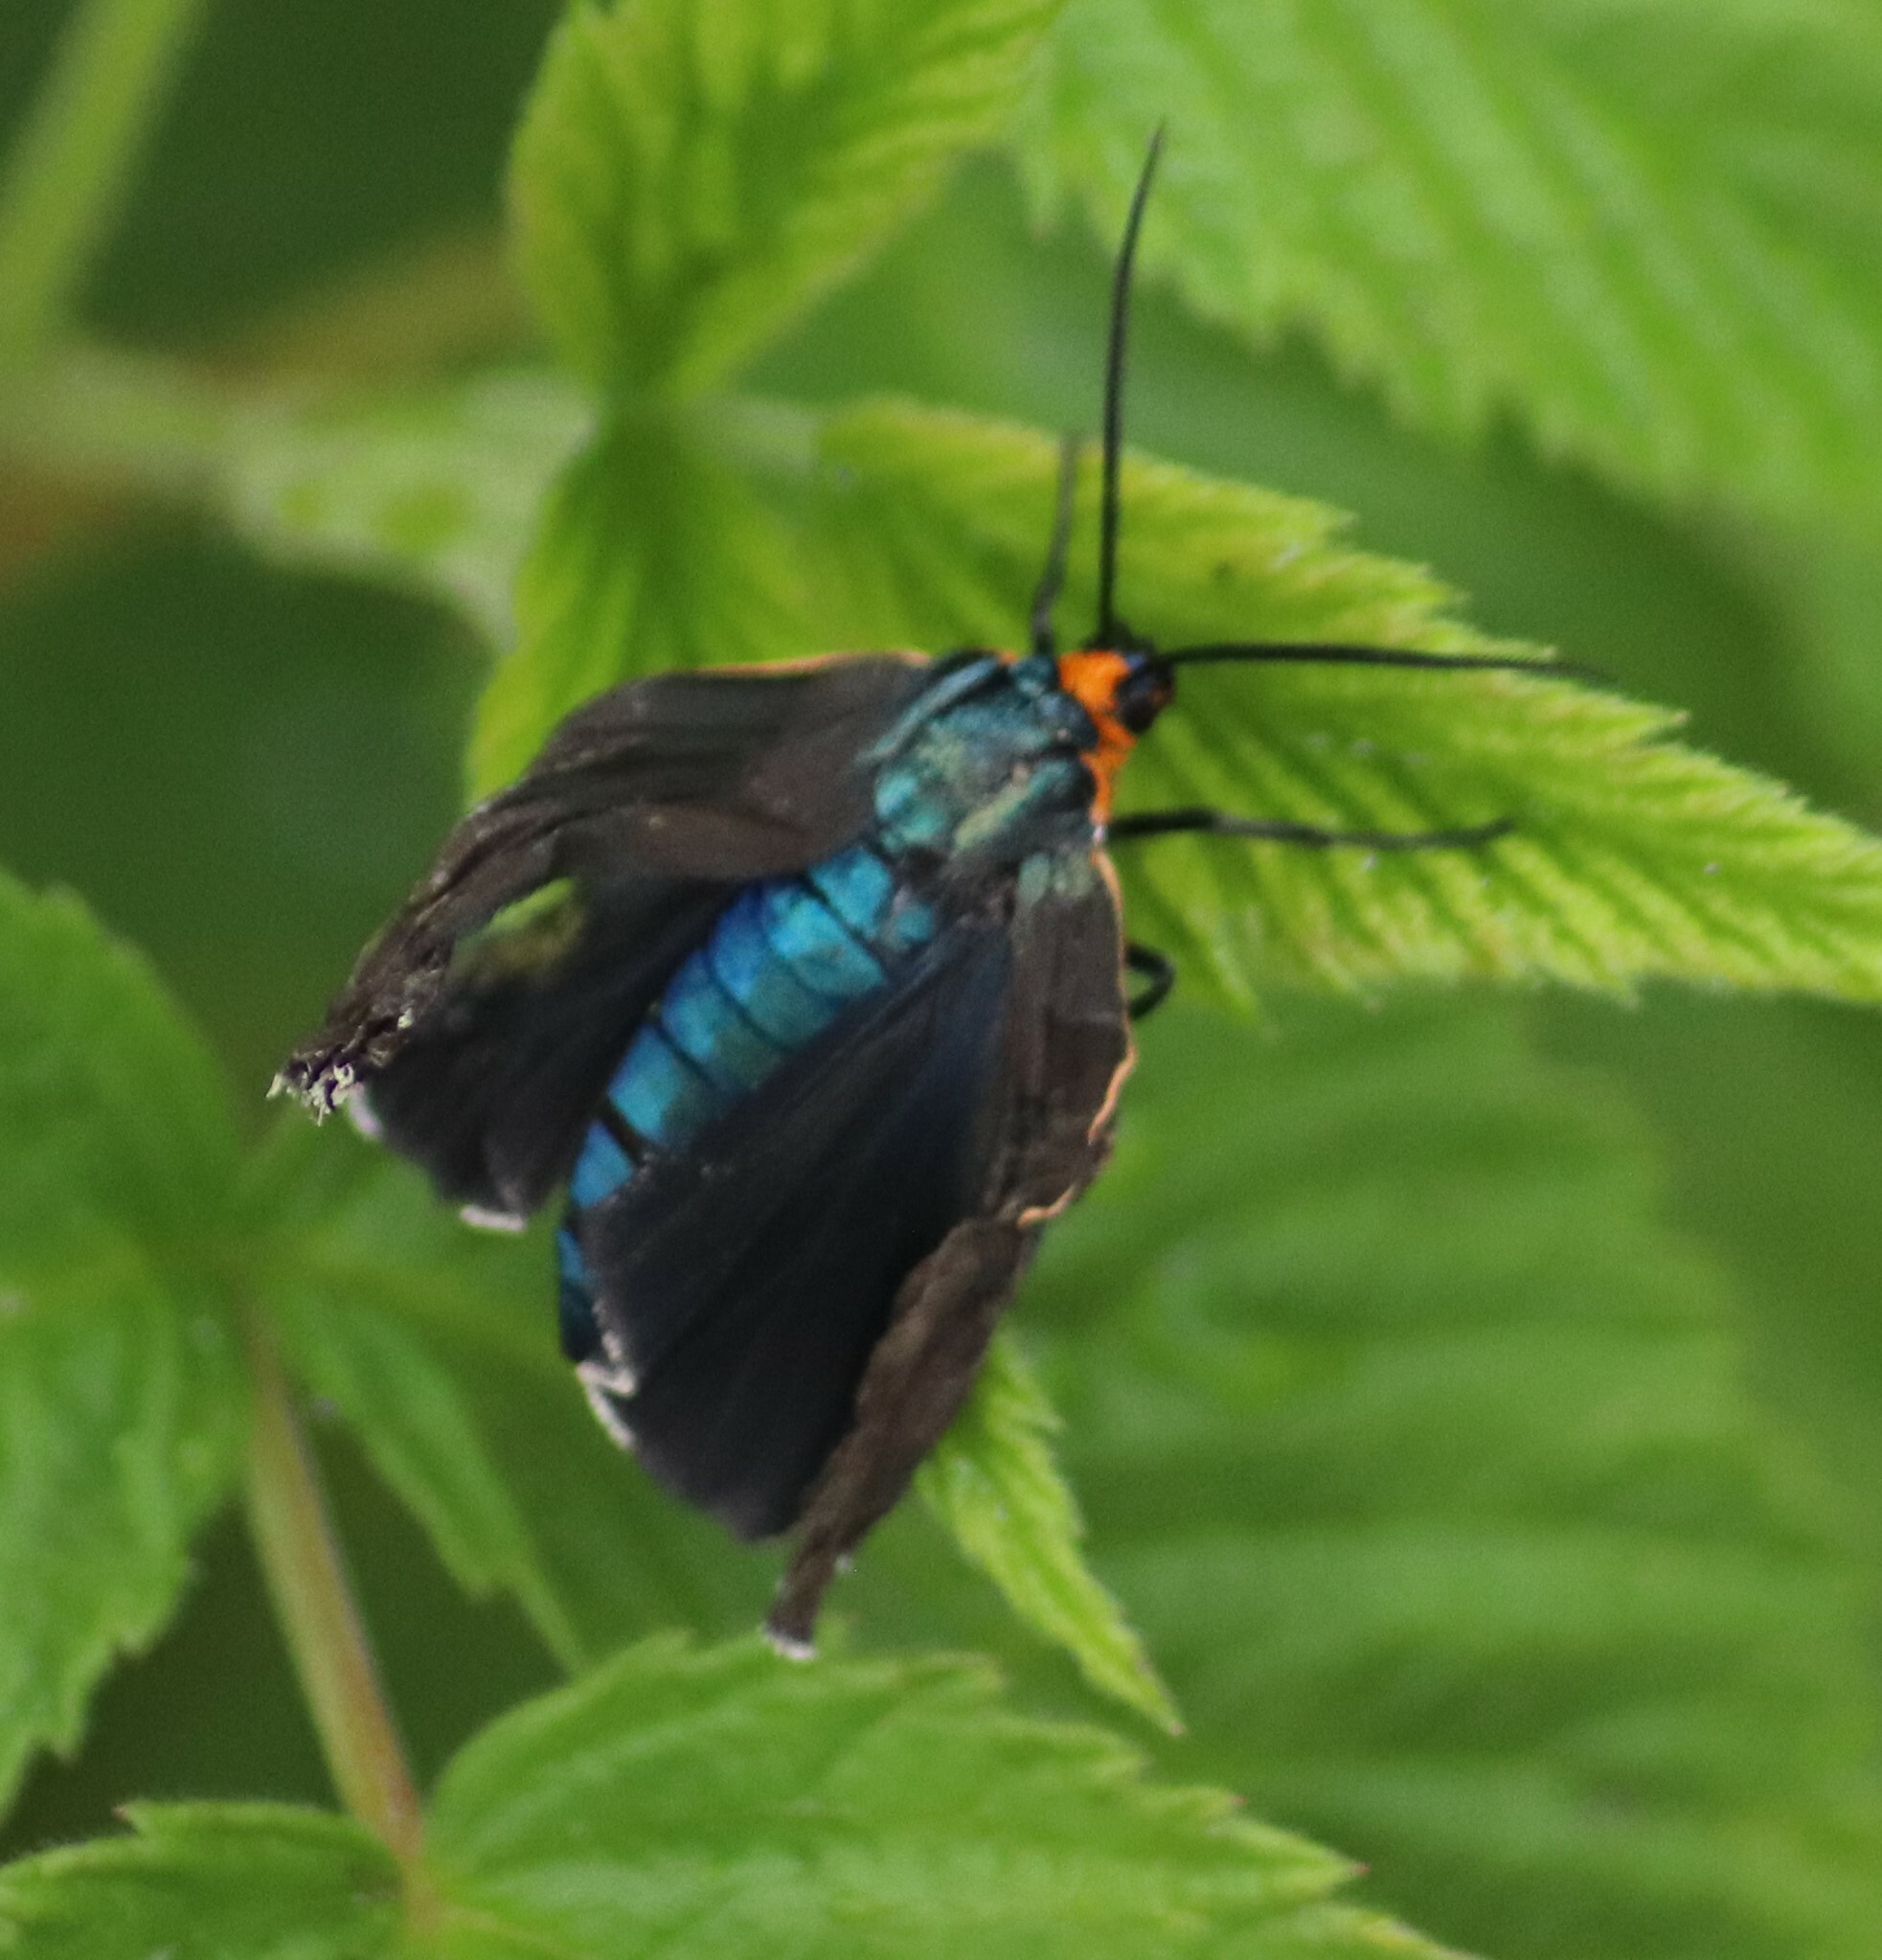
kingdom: Animalia
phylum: Arthropoda
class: Insecta
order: Lepidoptera
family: Erebidae
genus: Ctenucha
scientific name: Ctenucha virginica
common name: Virginia ctenucha moth
